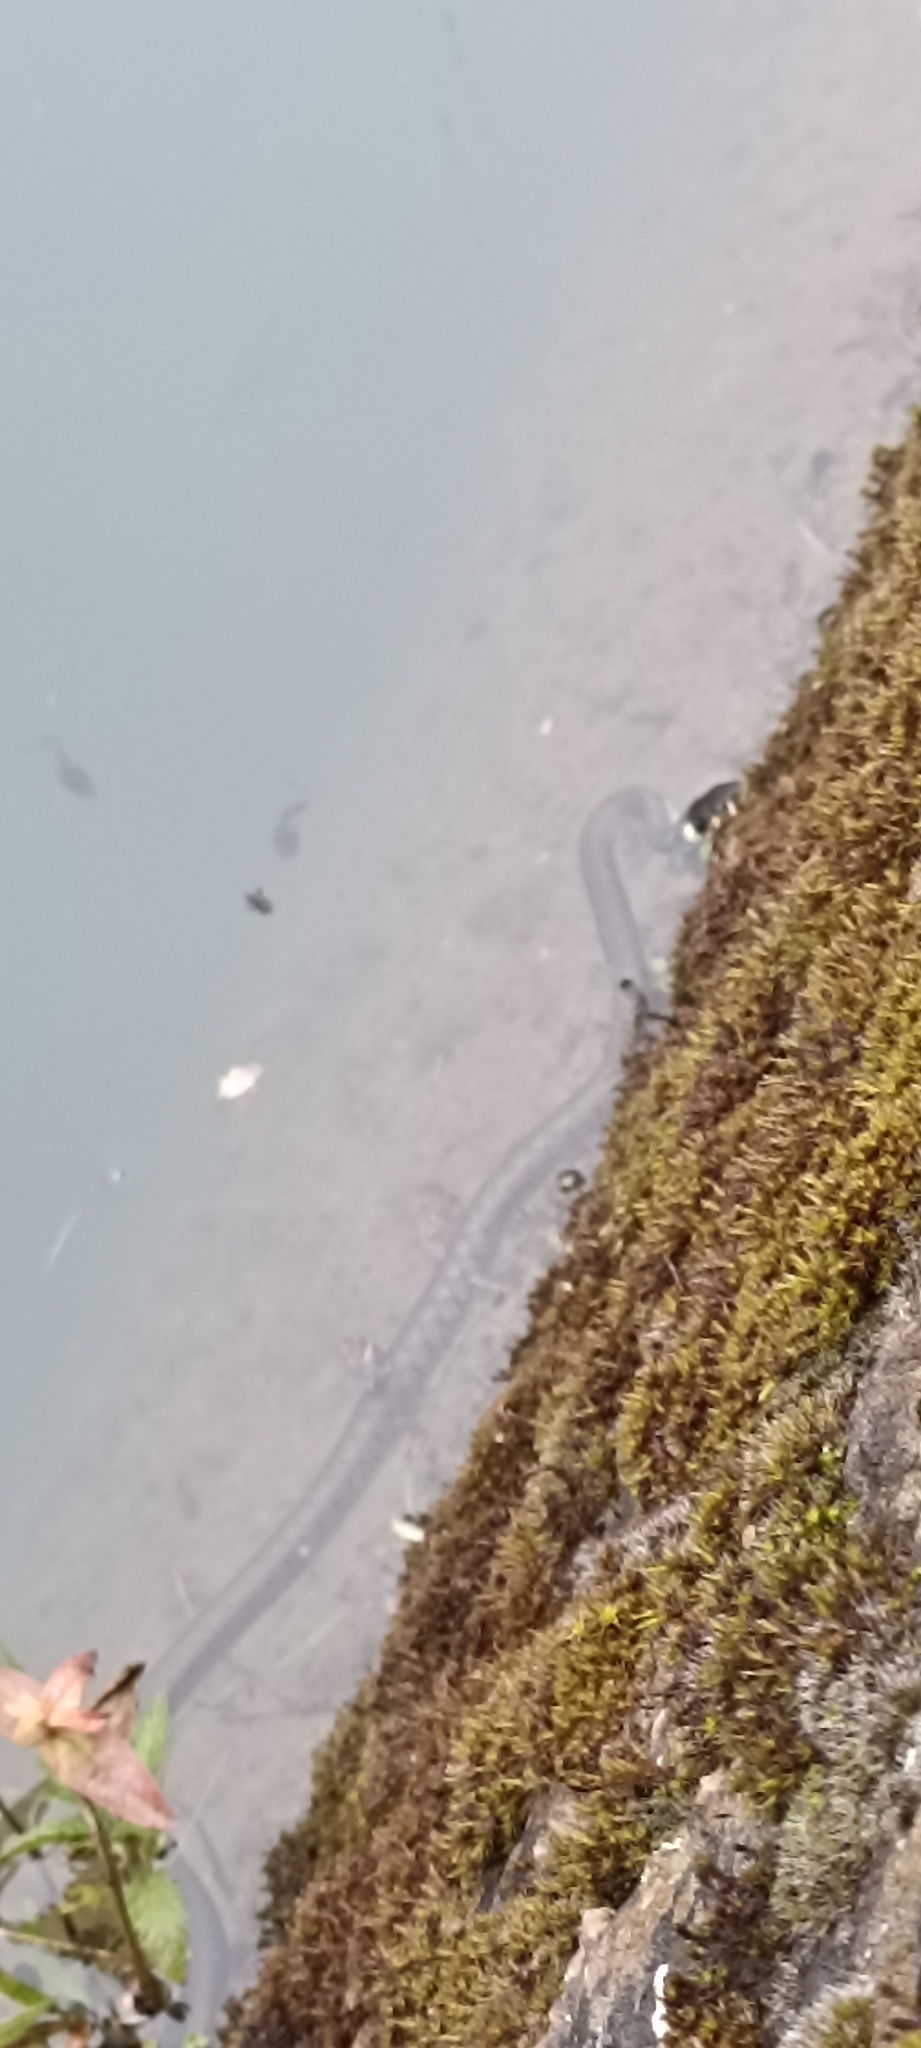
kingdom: Animalia
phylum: Chordata
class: Squamata
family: Colubridae
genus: Natrix
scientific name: Natrix natrix
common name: Grass snake
